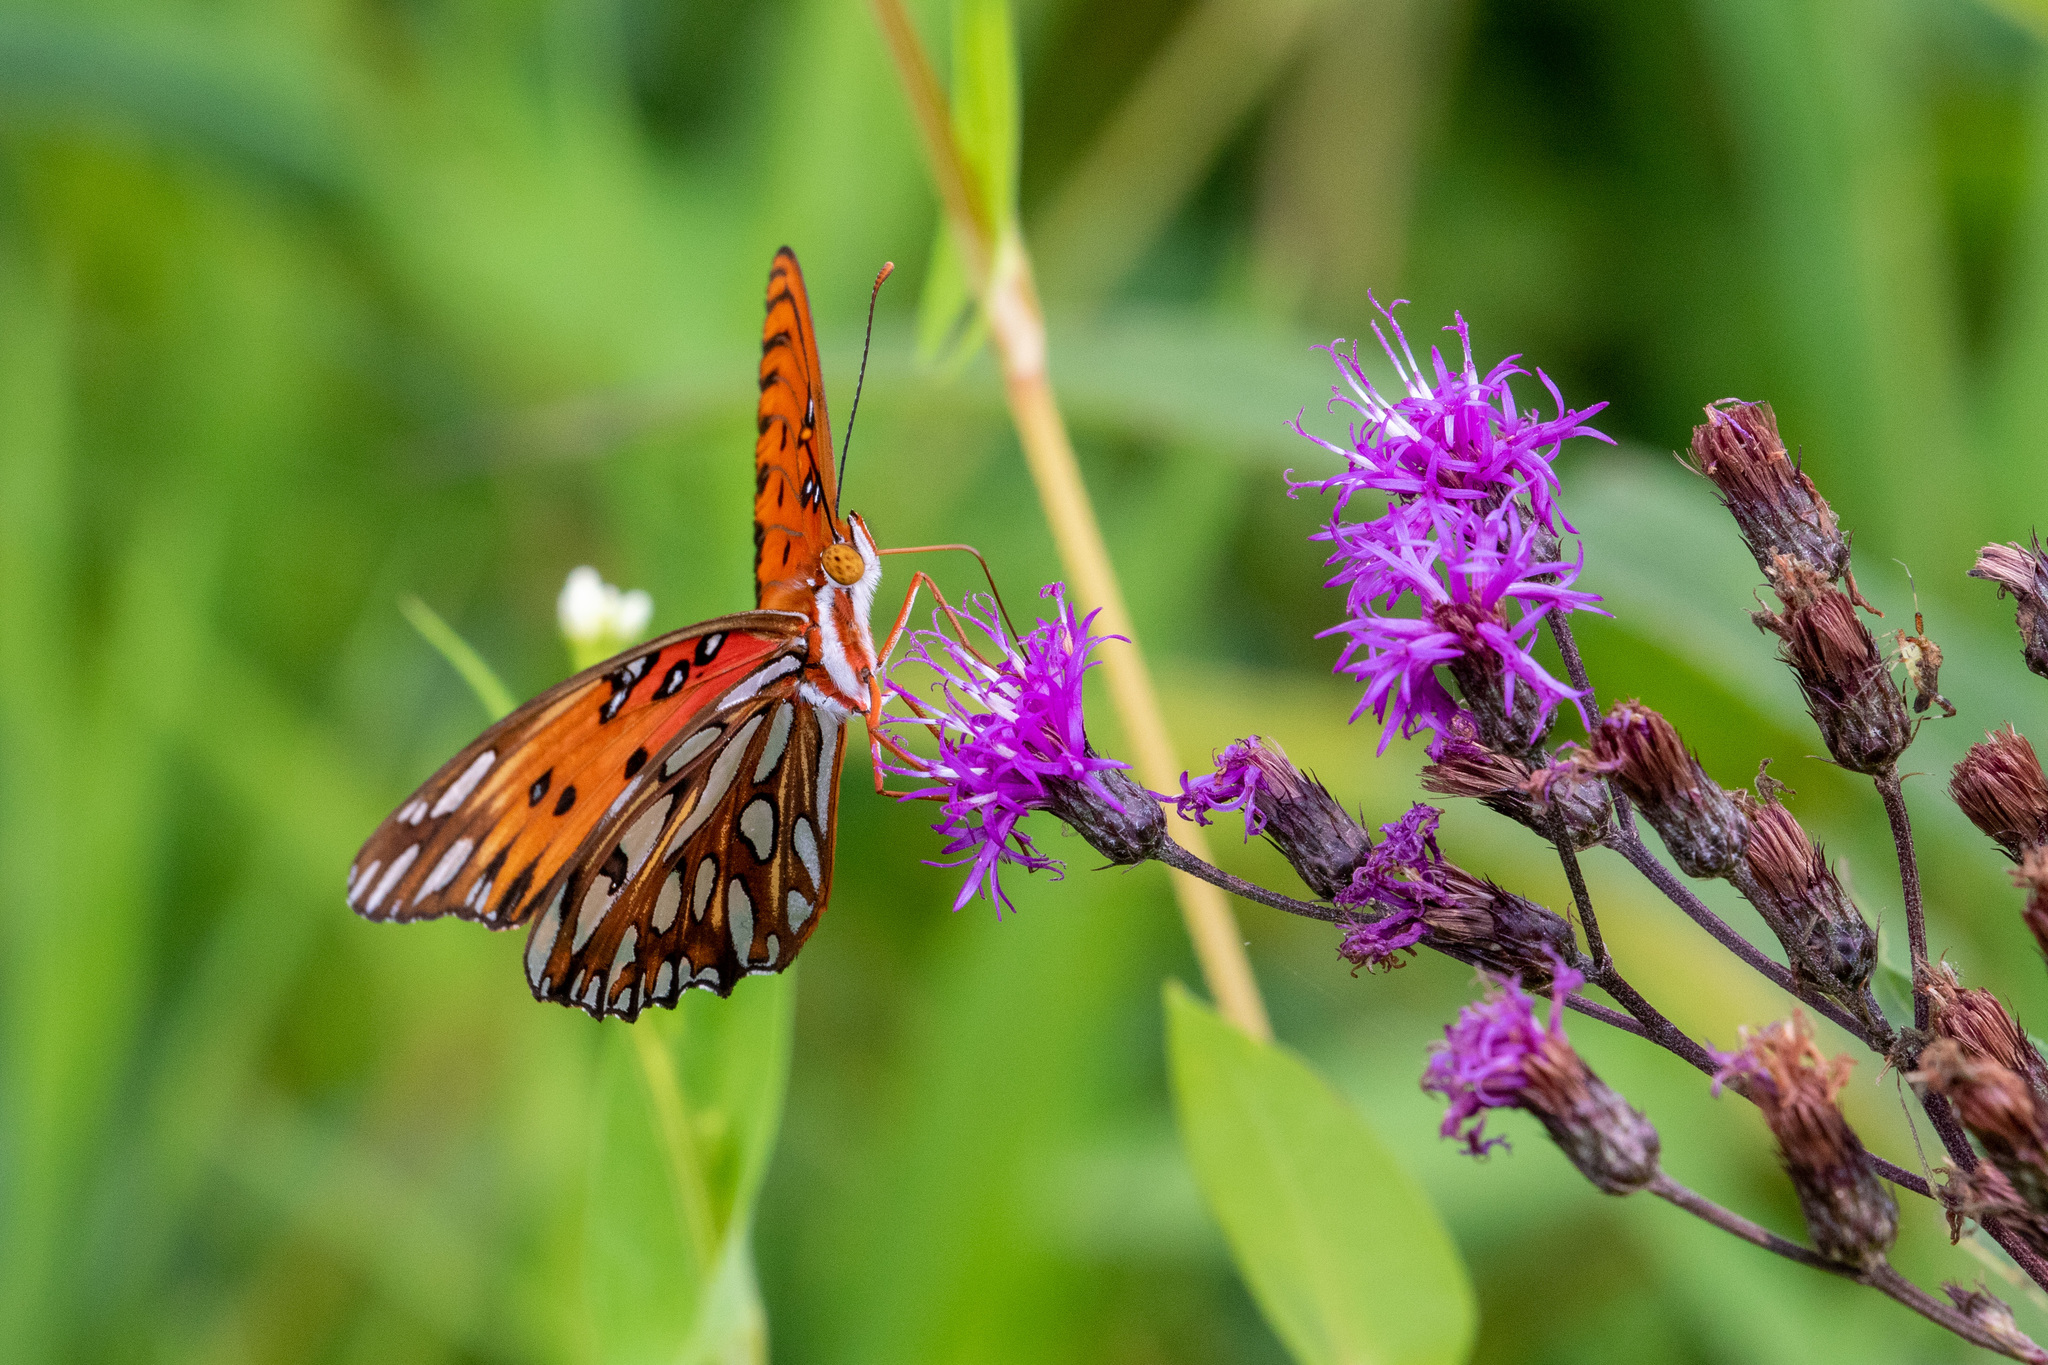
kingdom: Animalia
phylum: Arthropoda
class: Insecta
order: Lepidoptera
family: Nymphalidae
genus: Dione
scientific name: Dione vanillae
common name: Gulf fritillary
